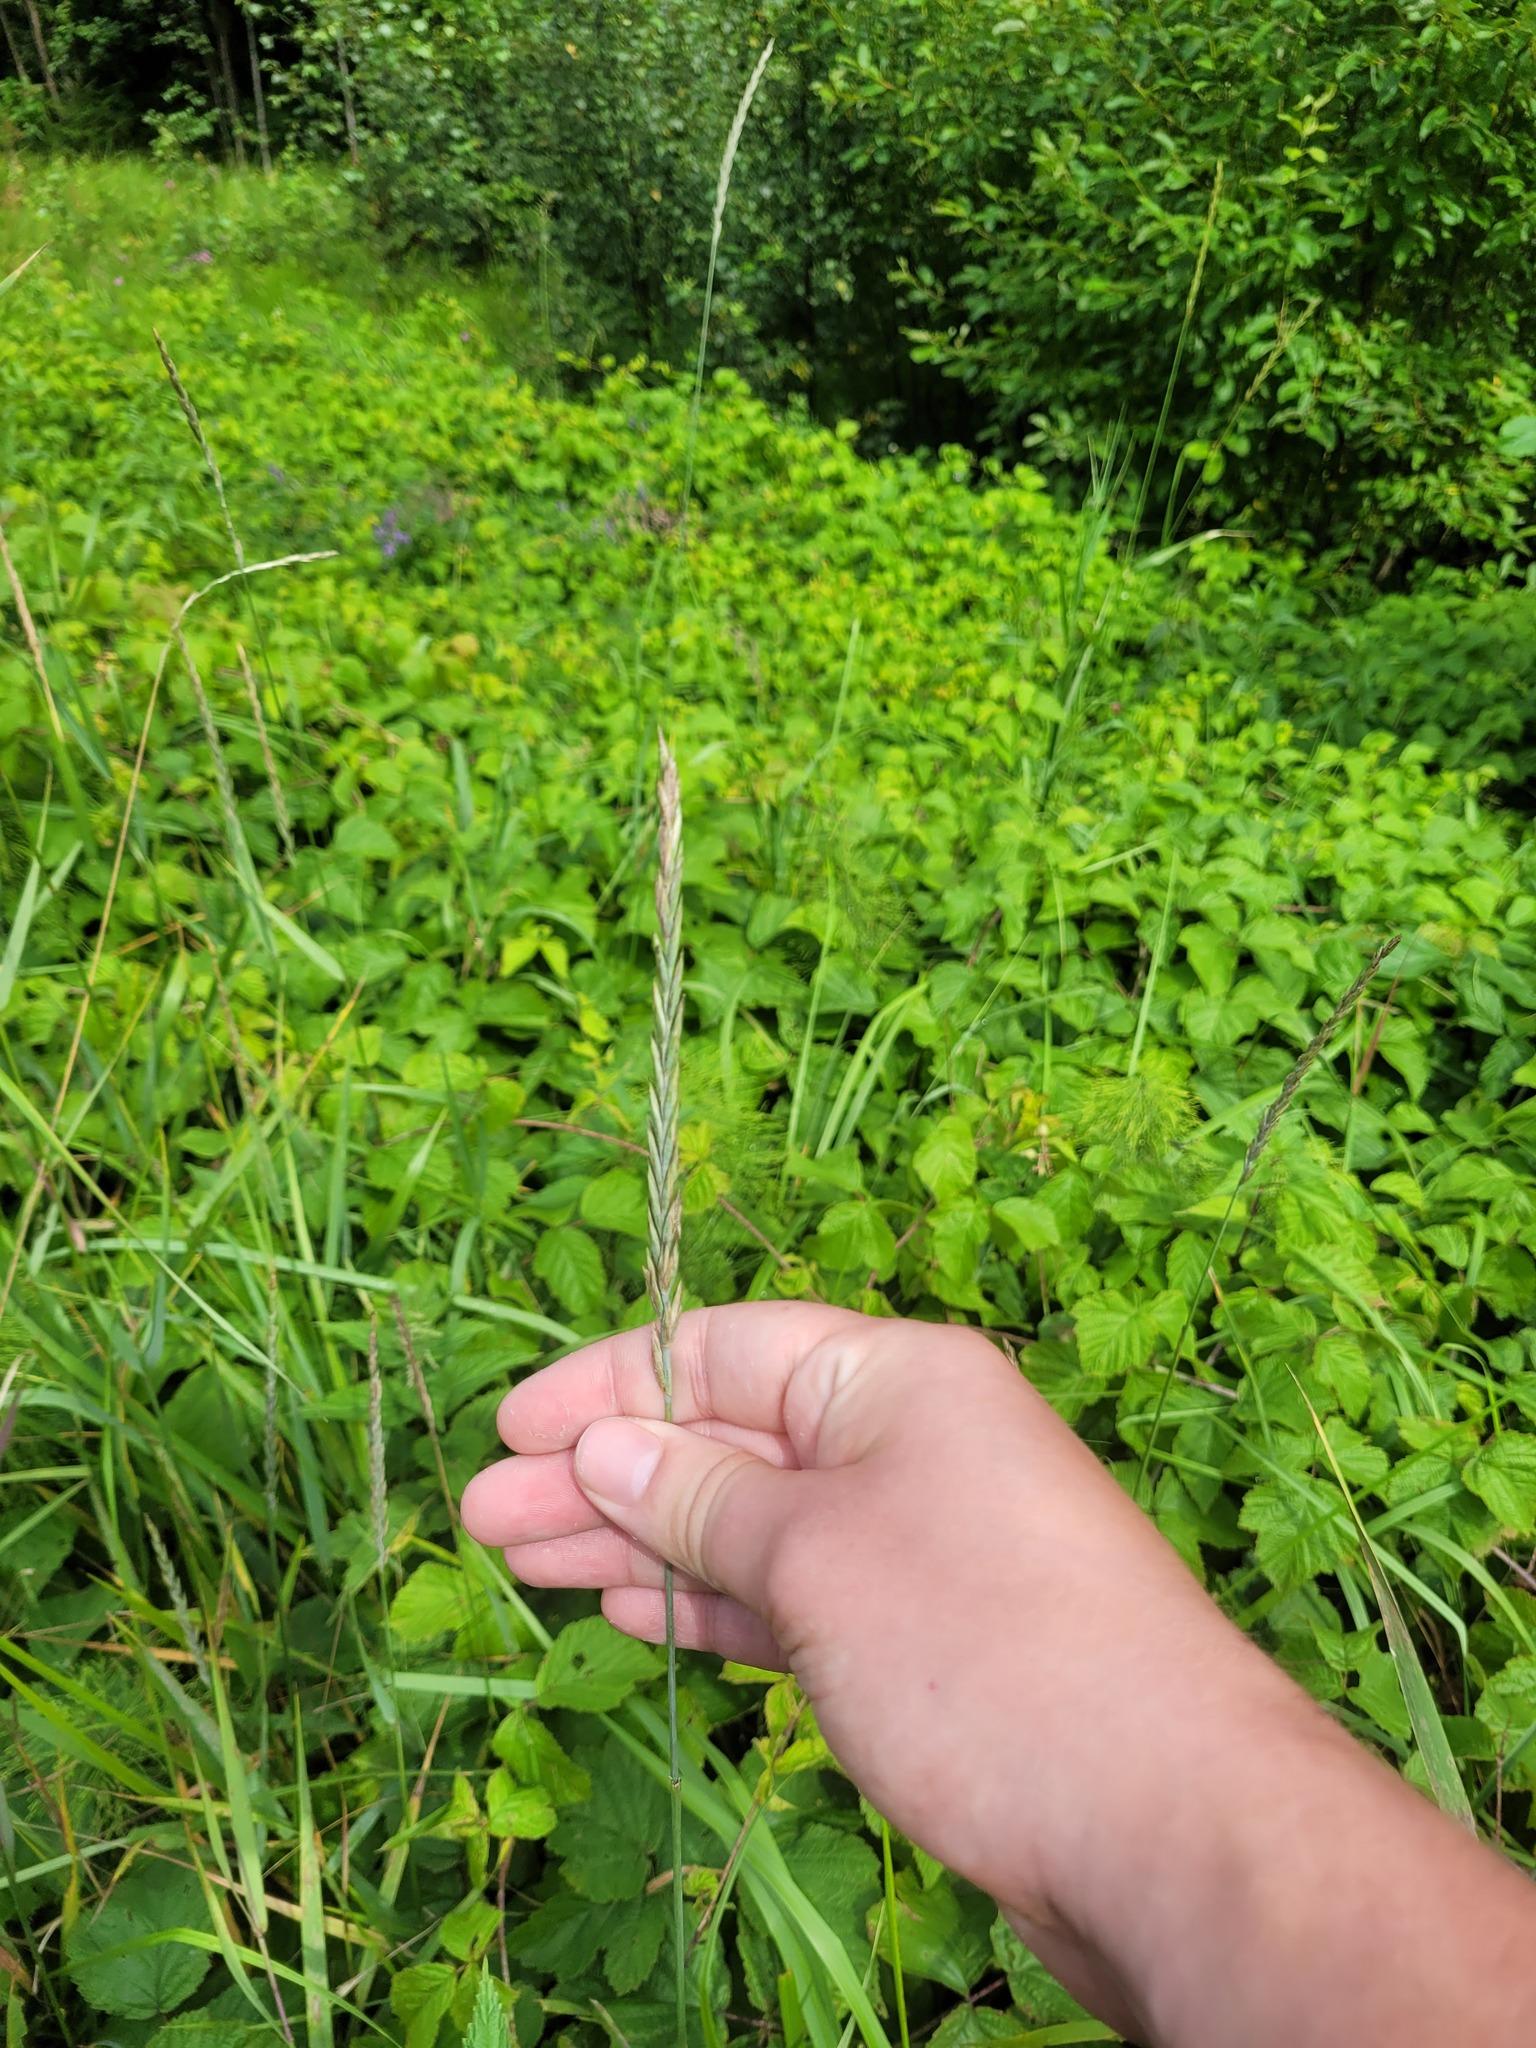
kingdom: Plantae
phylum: Tracheophyta
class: Liliopsida
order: Poales
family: Poaceae
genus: Elymus
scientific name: Elymus repens
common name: Quackgrass
